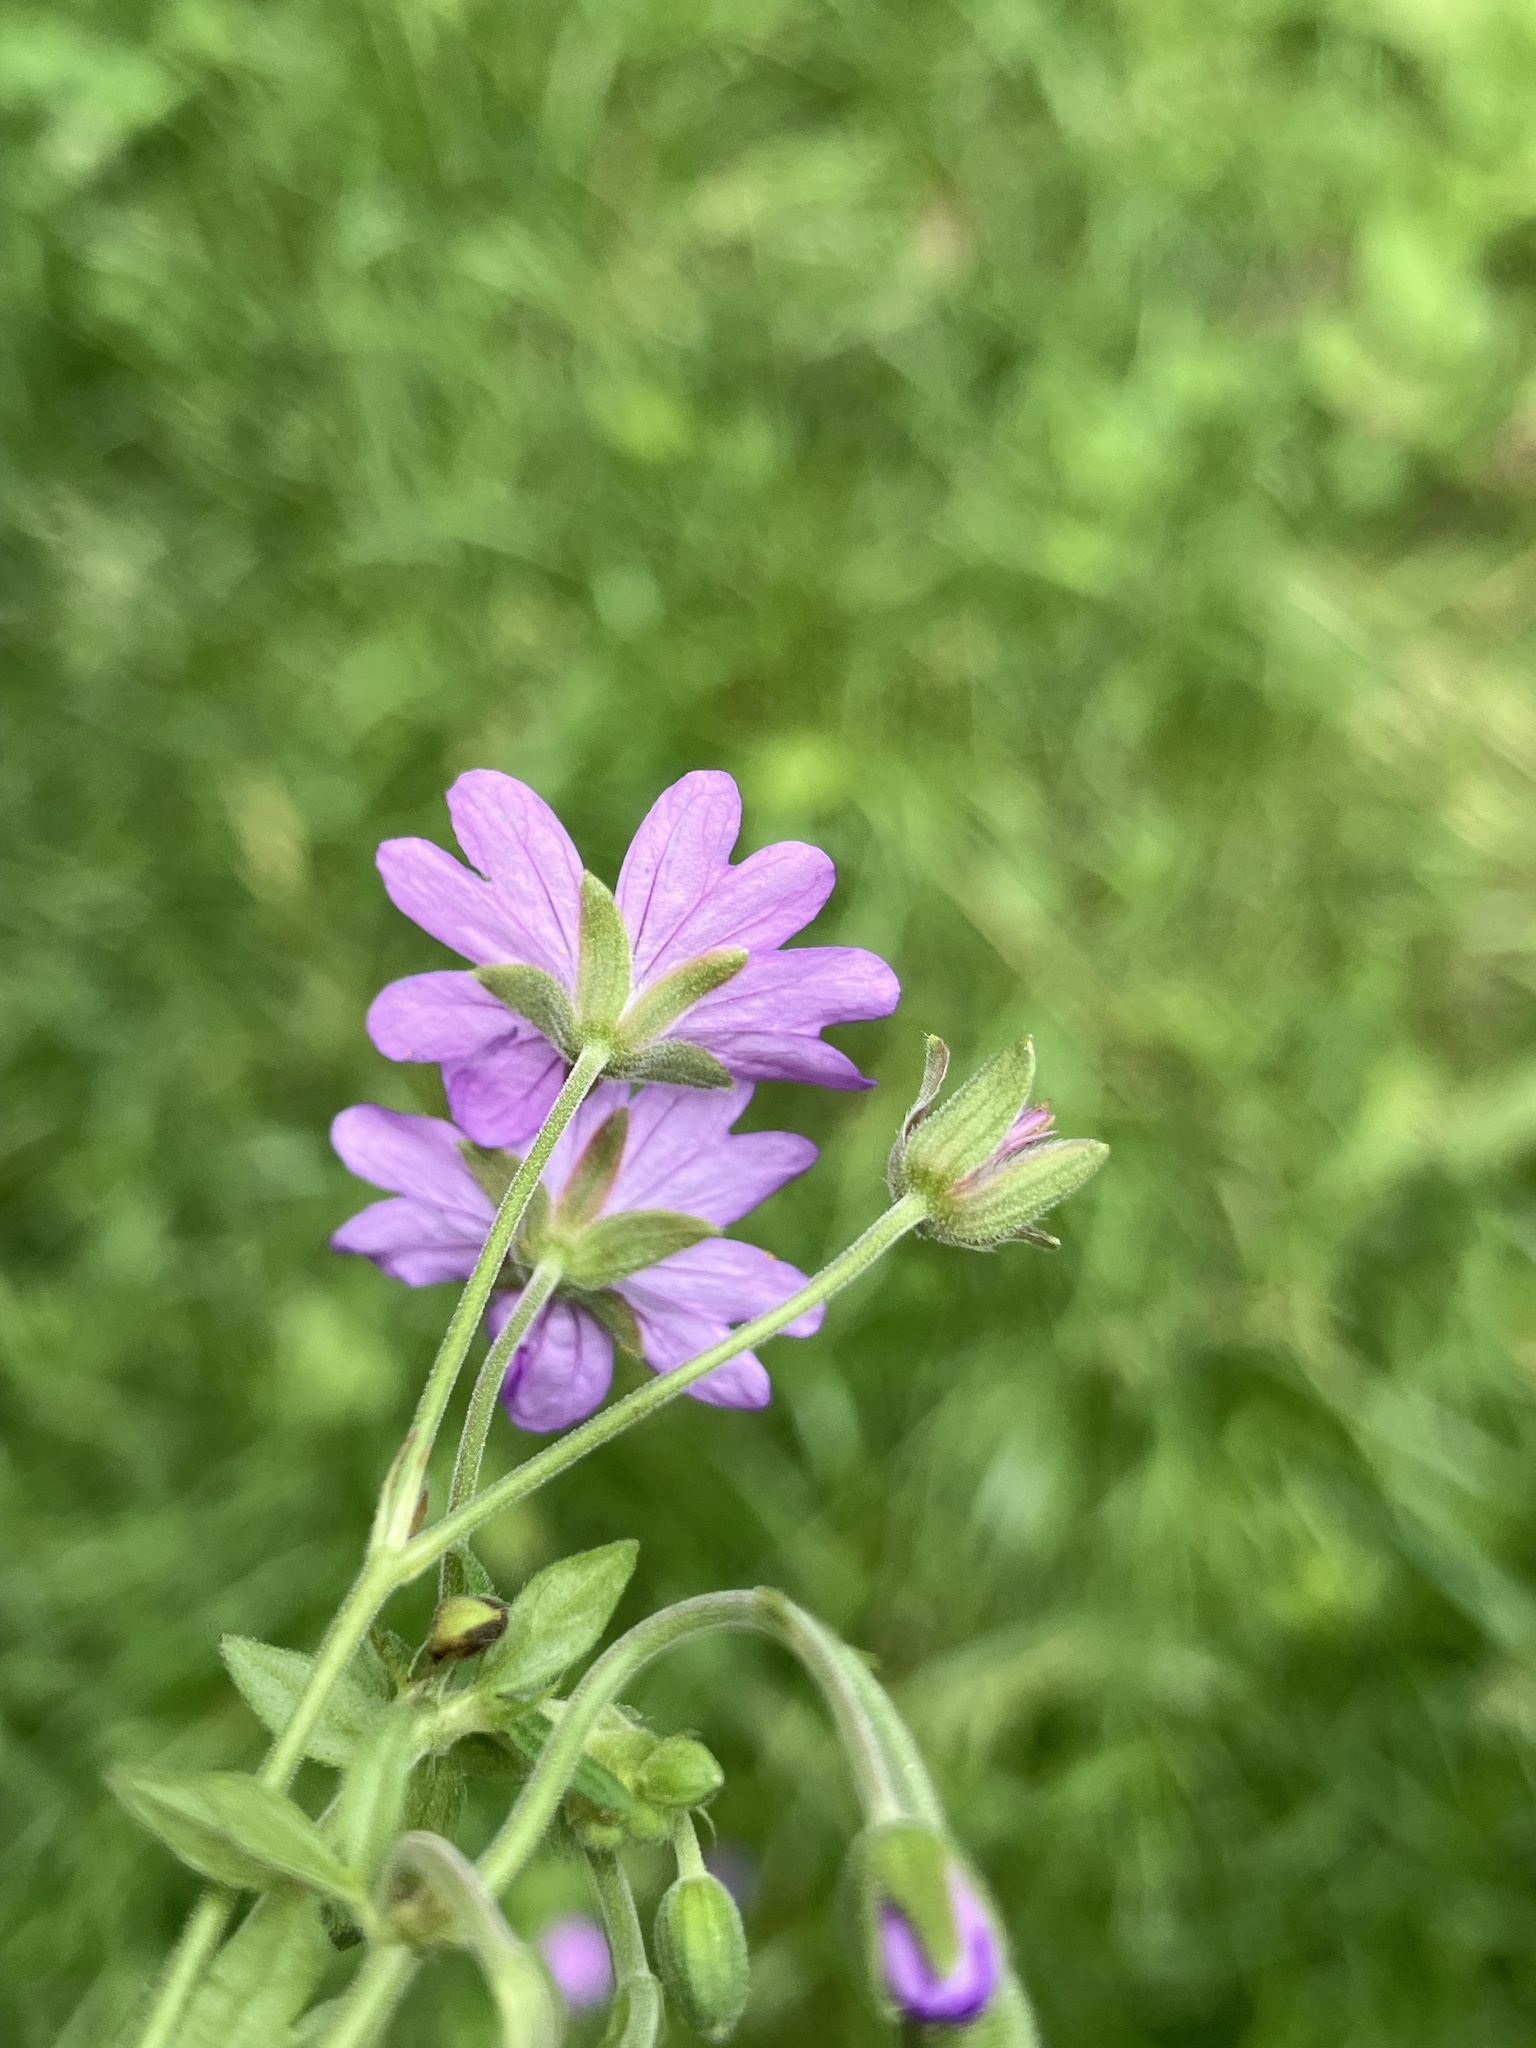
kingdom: Plantae
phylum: Tracheophyta
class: Magnoliopsida
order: Geraniales
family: Geraniaceae
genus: Geranium
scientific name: Geranium pyrenaicum
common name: Hedgerow crane's-bill
